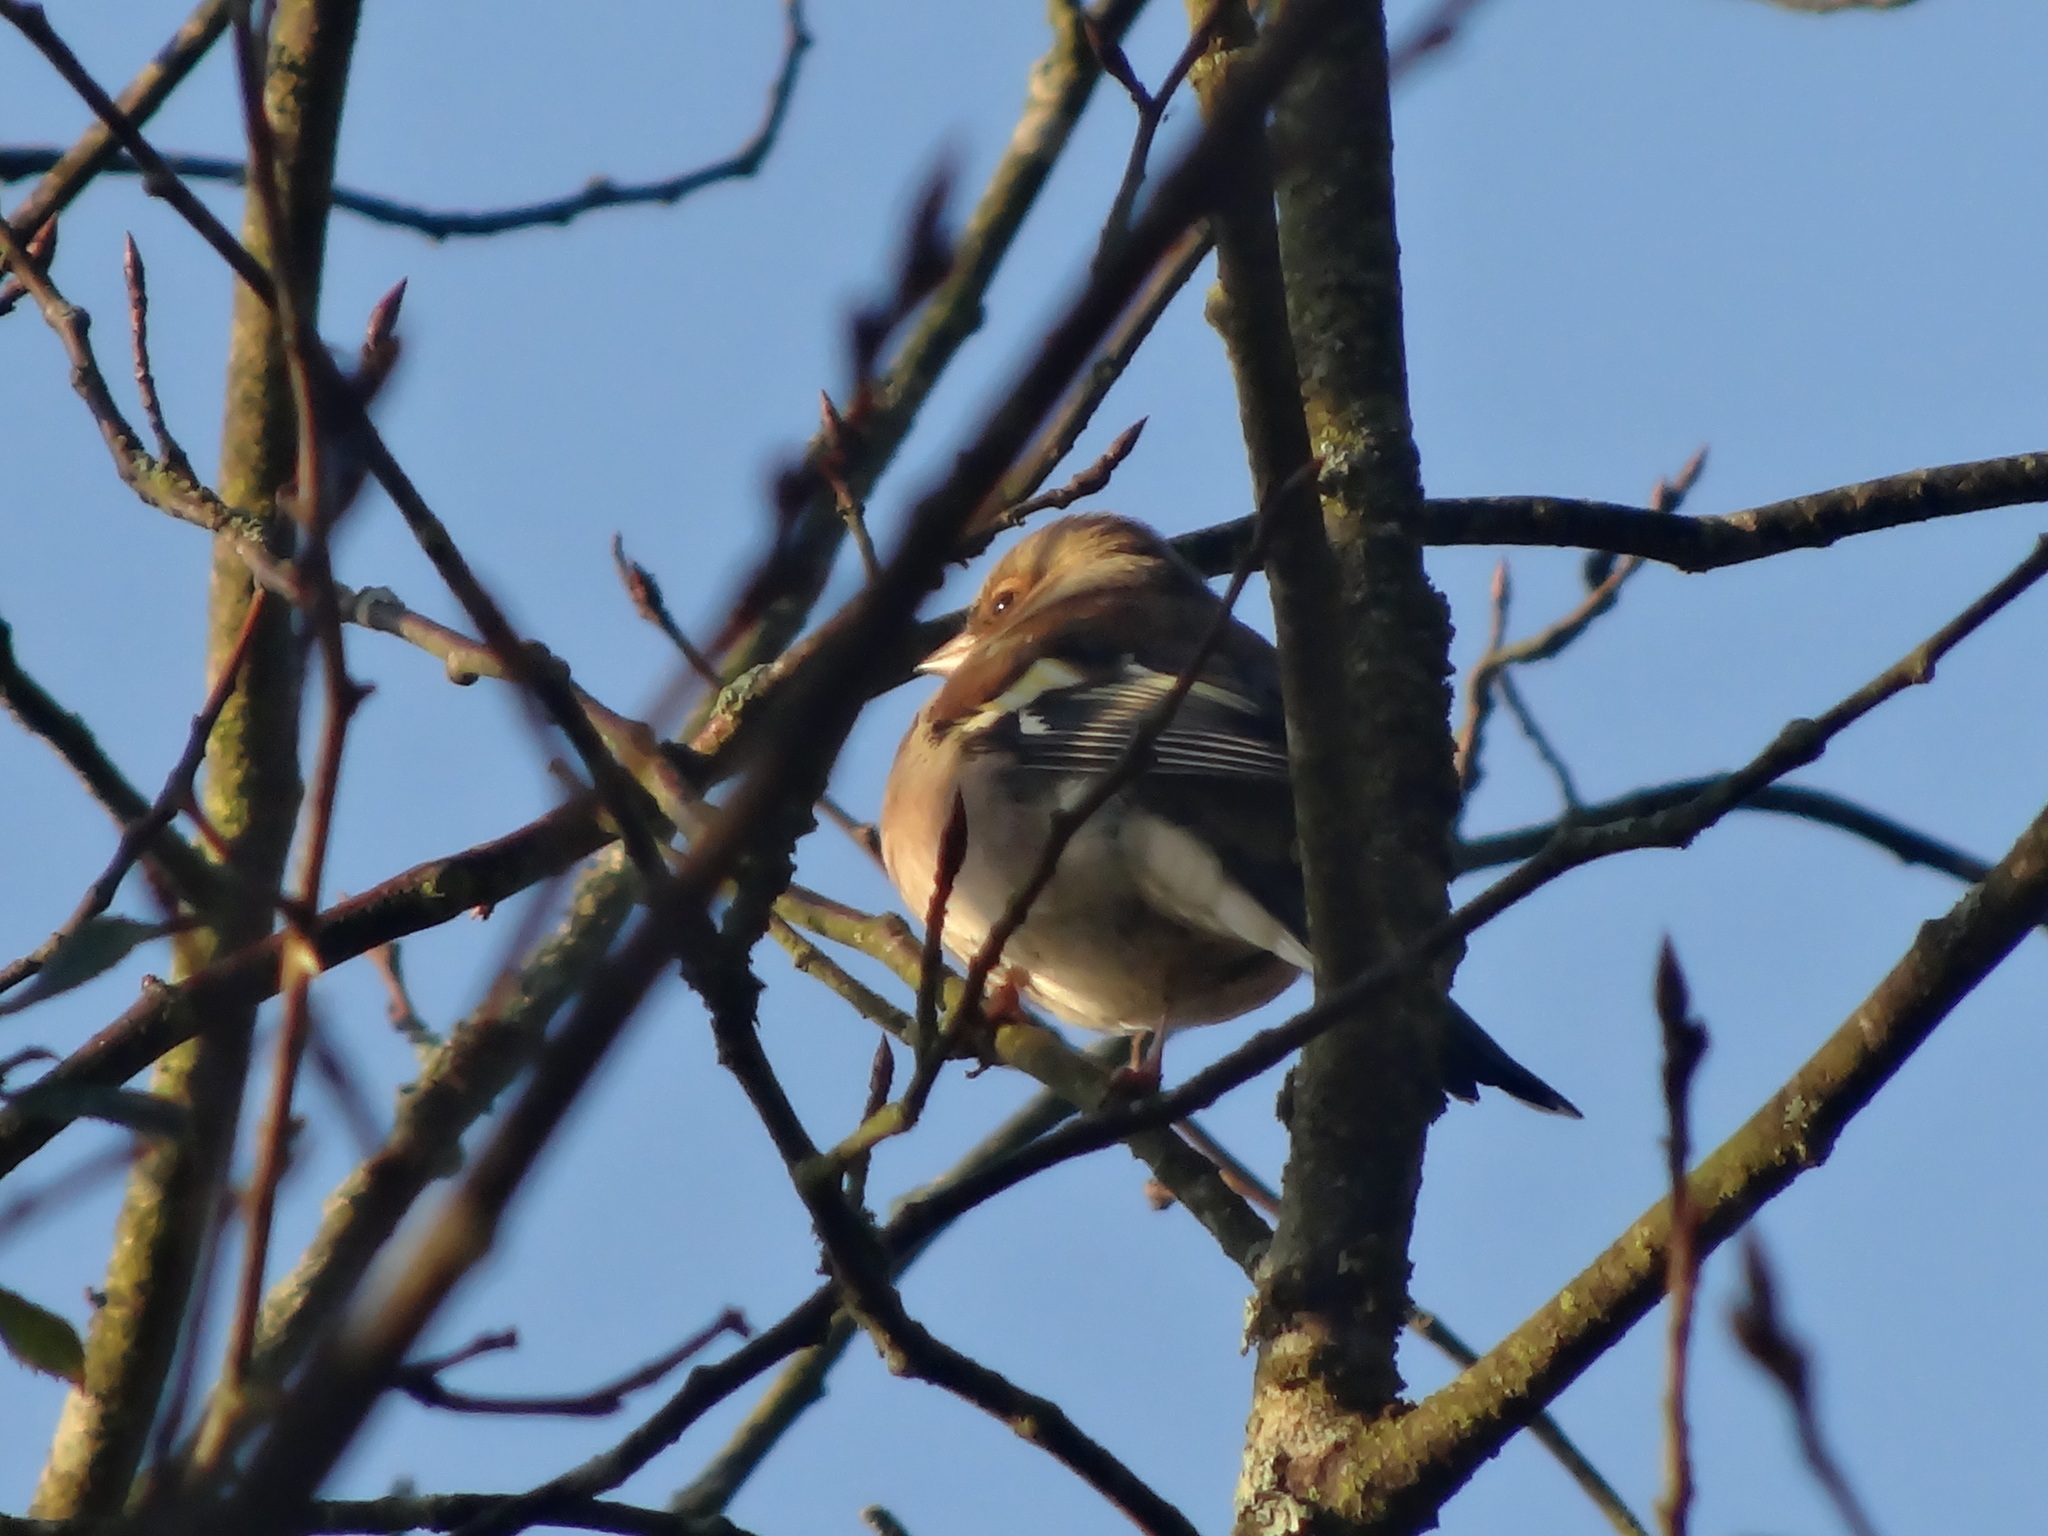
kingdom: Animalia
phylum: Chordata
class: Aves
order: Passeriformes
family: Fringillidae
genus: Fringilla
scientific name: Fringilla coelebs
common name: Common chaffinch
